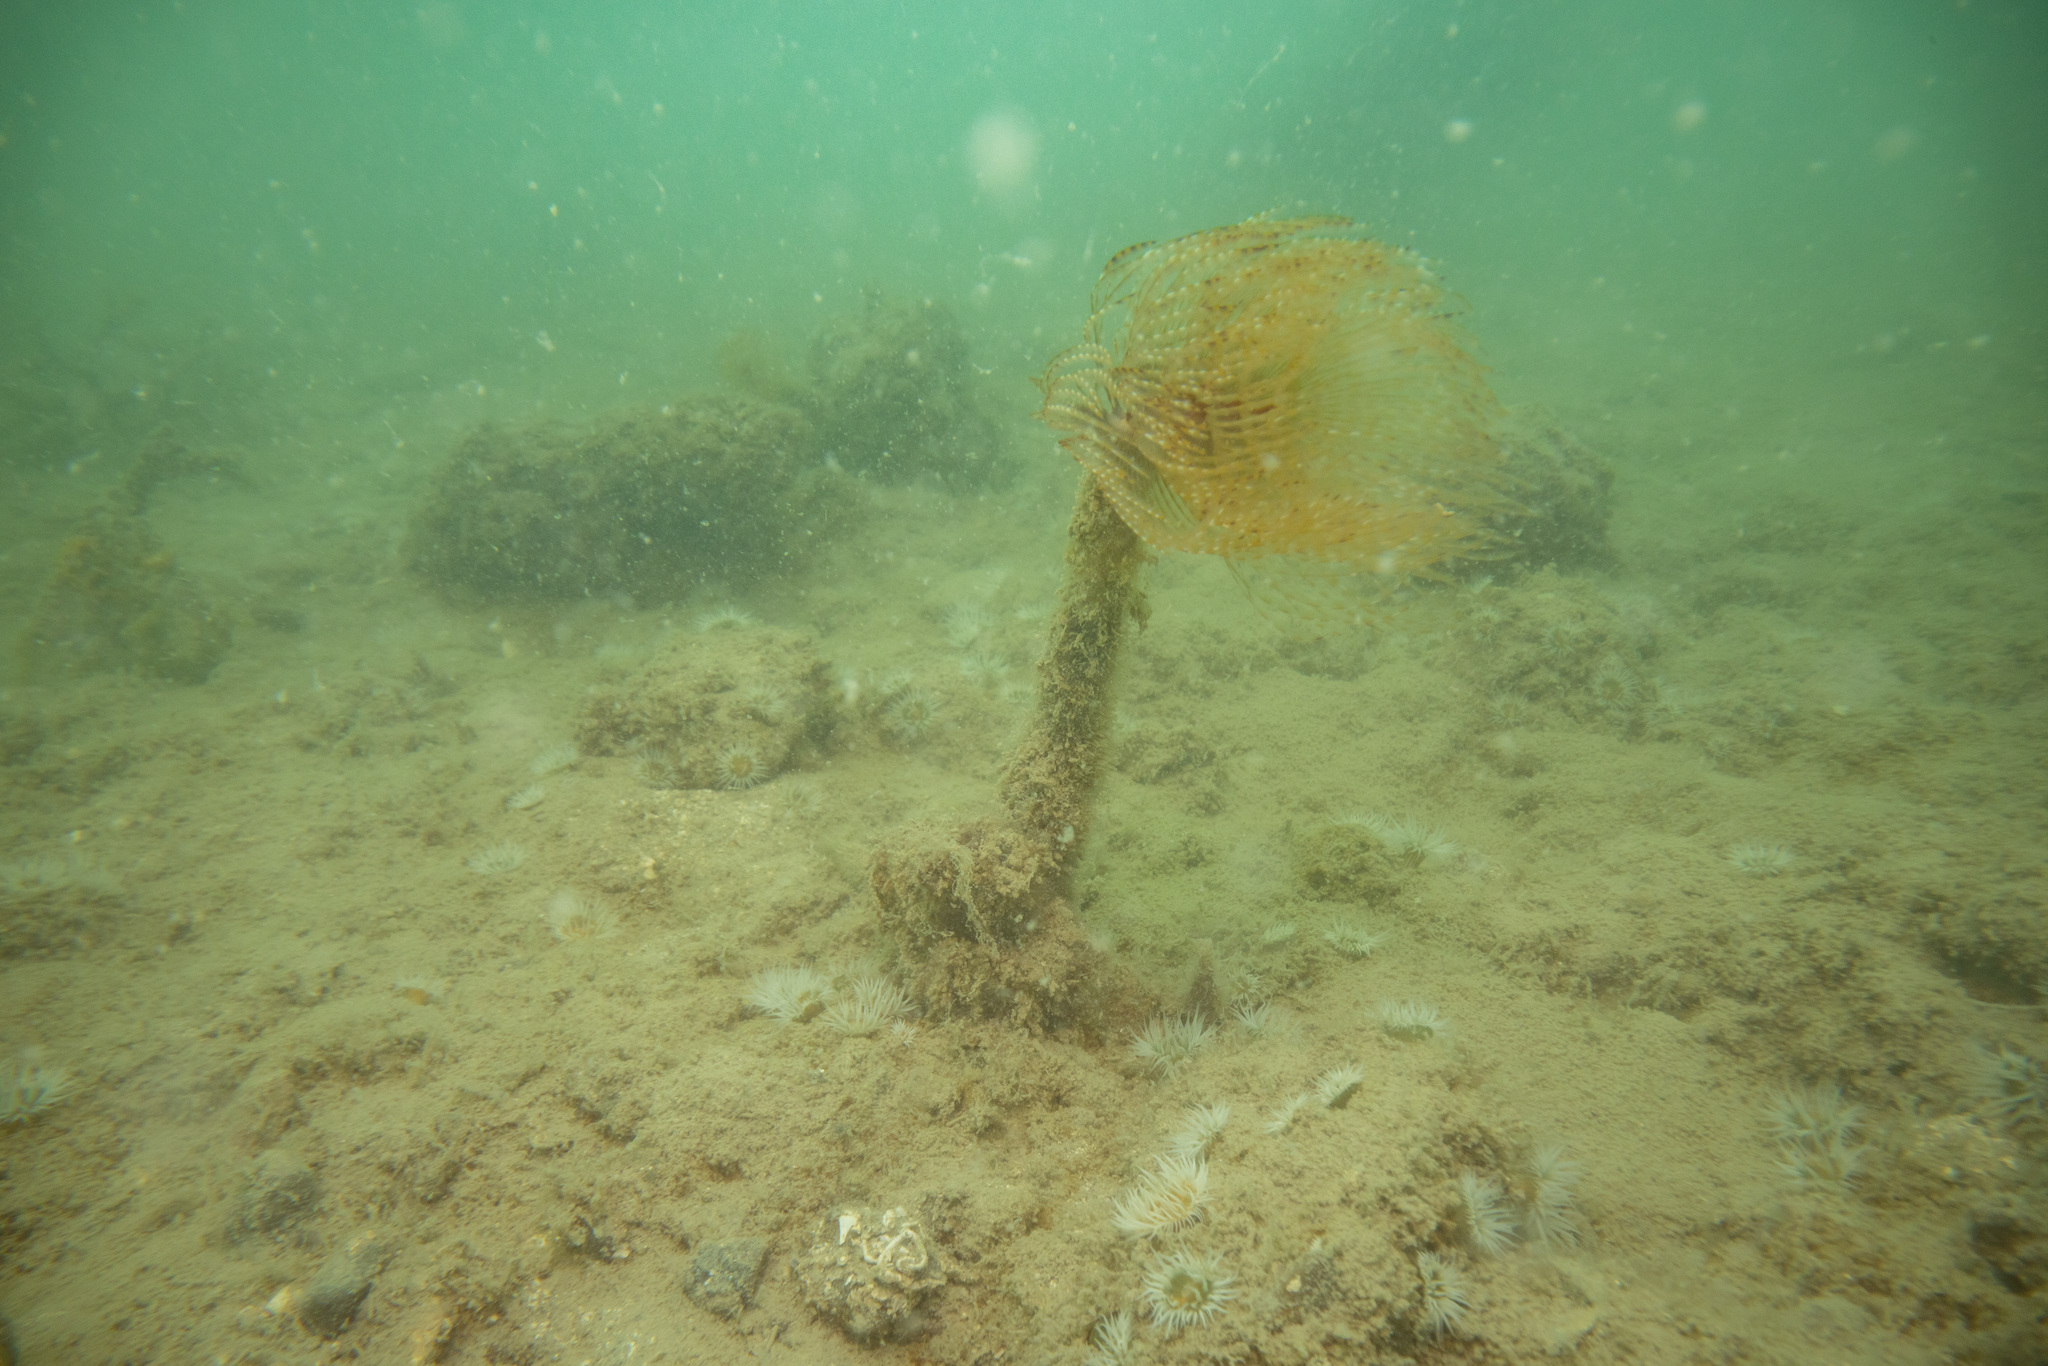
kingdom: Animalia
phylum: Annelida
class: Polychaeta
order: Sabellida
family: Sabellidae
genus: Sabella
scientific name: Sabella spallanzanii
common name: Feather duster worm
